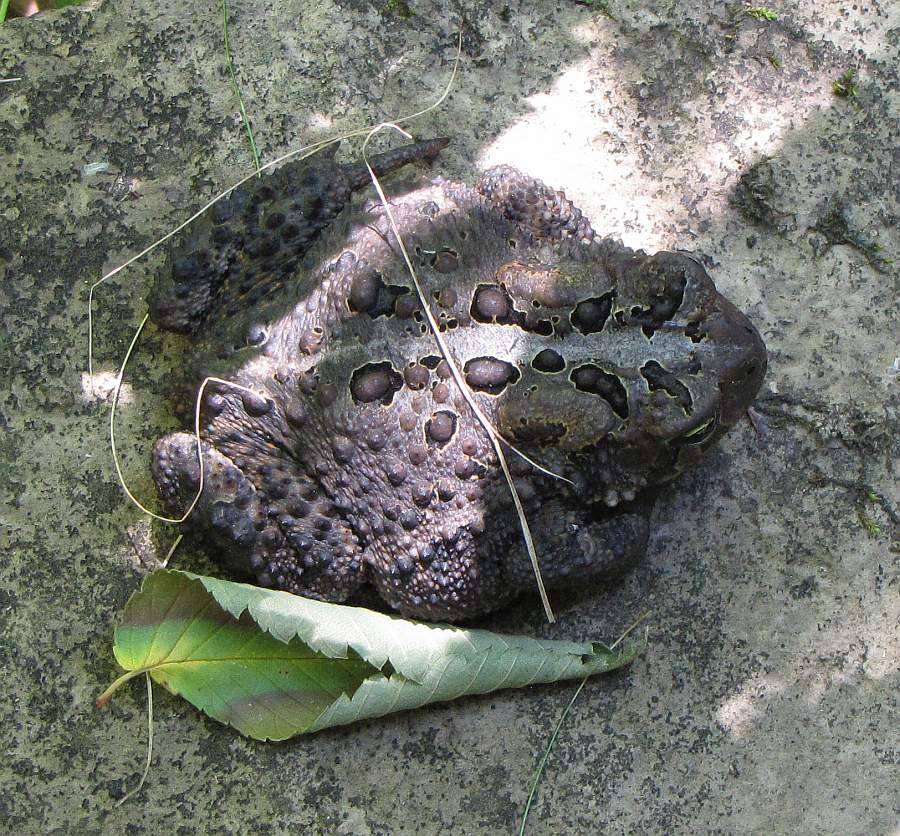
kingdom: Animalia
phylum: Chordata
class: Amphibia
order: Anura
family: Bufonidae
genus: Anaxyrus
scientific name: Anaxyrus americanus
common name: American toad
